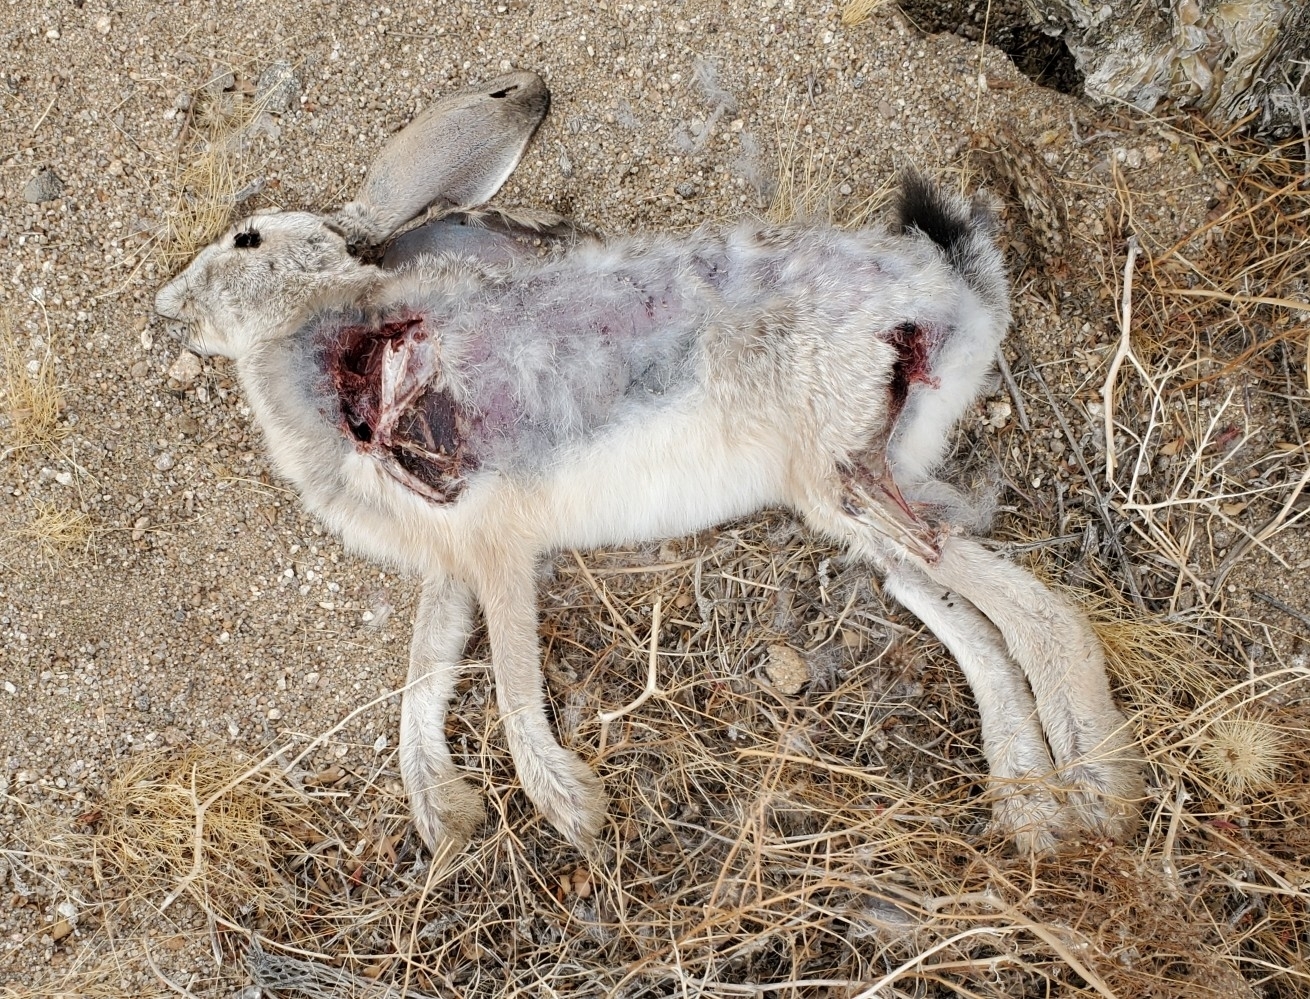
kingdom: Animalia
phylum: Chordata
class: Mammalia
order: Lagomorpha
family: Leporidae
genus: Lepus
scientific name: Lepus californicus
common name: Black-tailed jackrabbit
